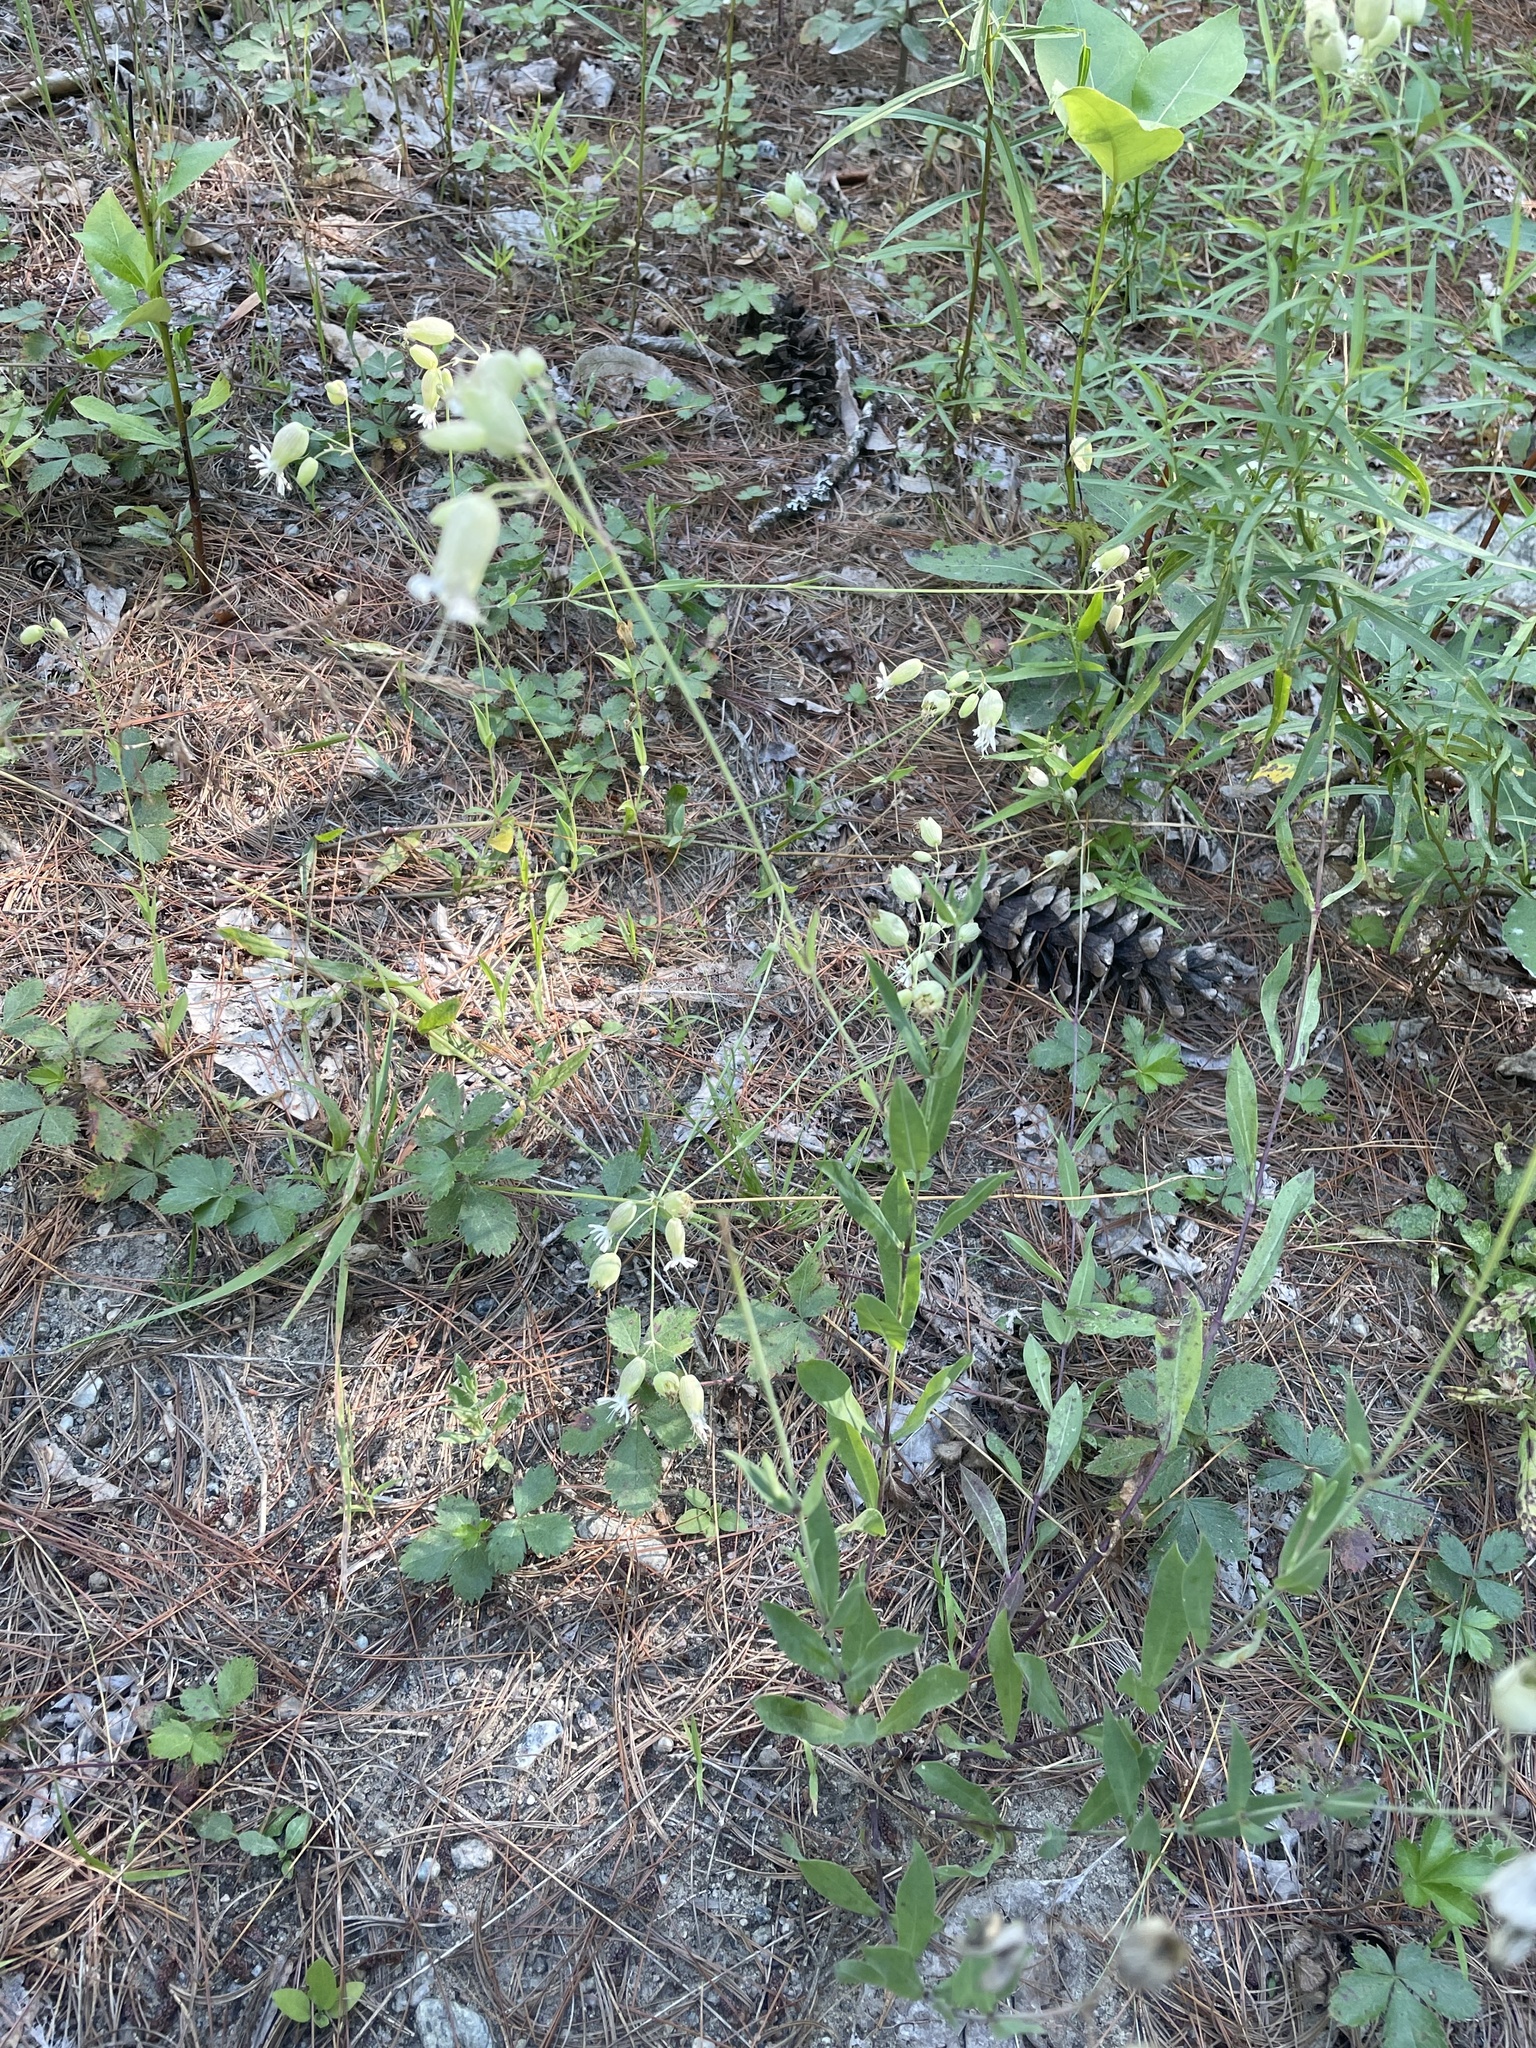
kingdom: Plantae
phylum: Tracheophyta
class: Magnoliopsida
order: Caryophyllales
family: Caryophyllaceae
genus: Silene
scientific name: Silene vulgaris
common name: Bladder campion
